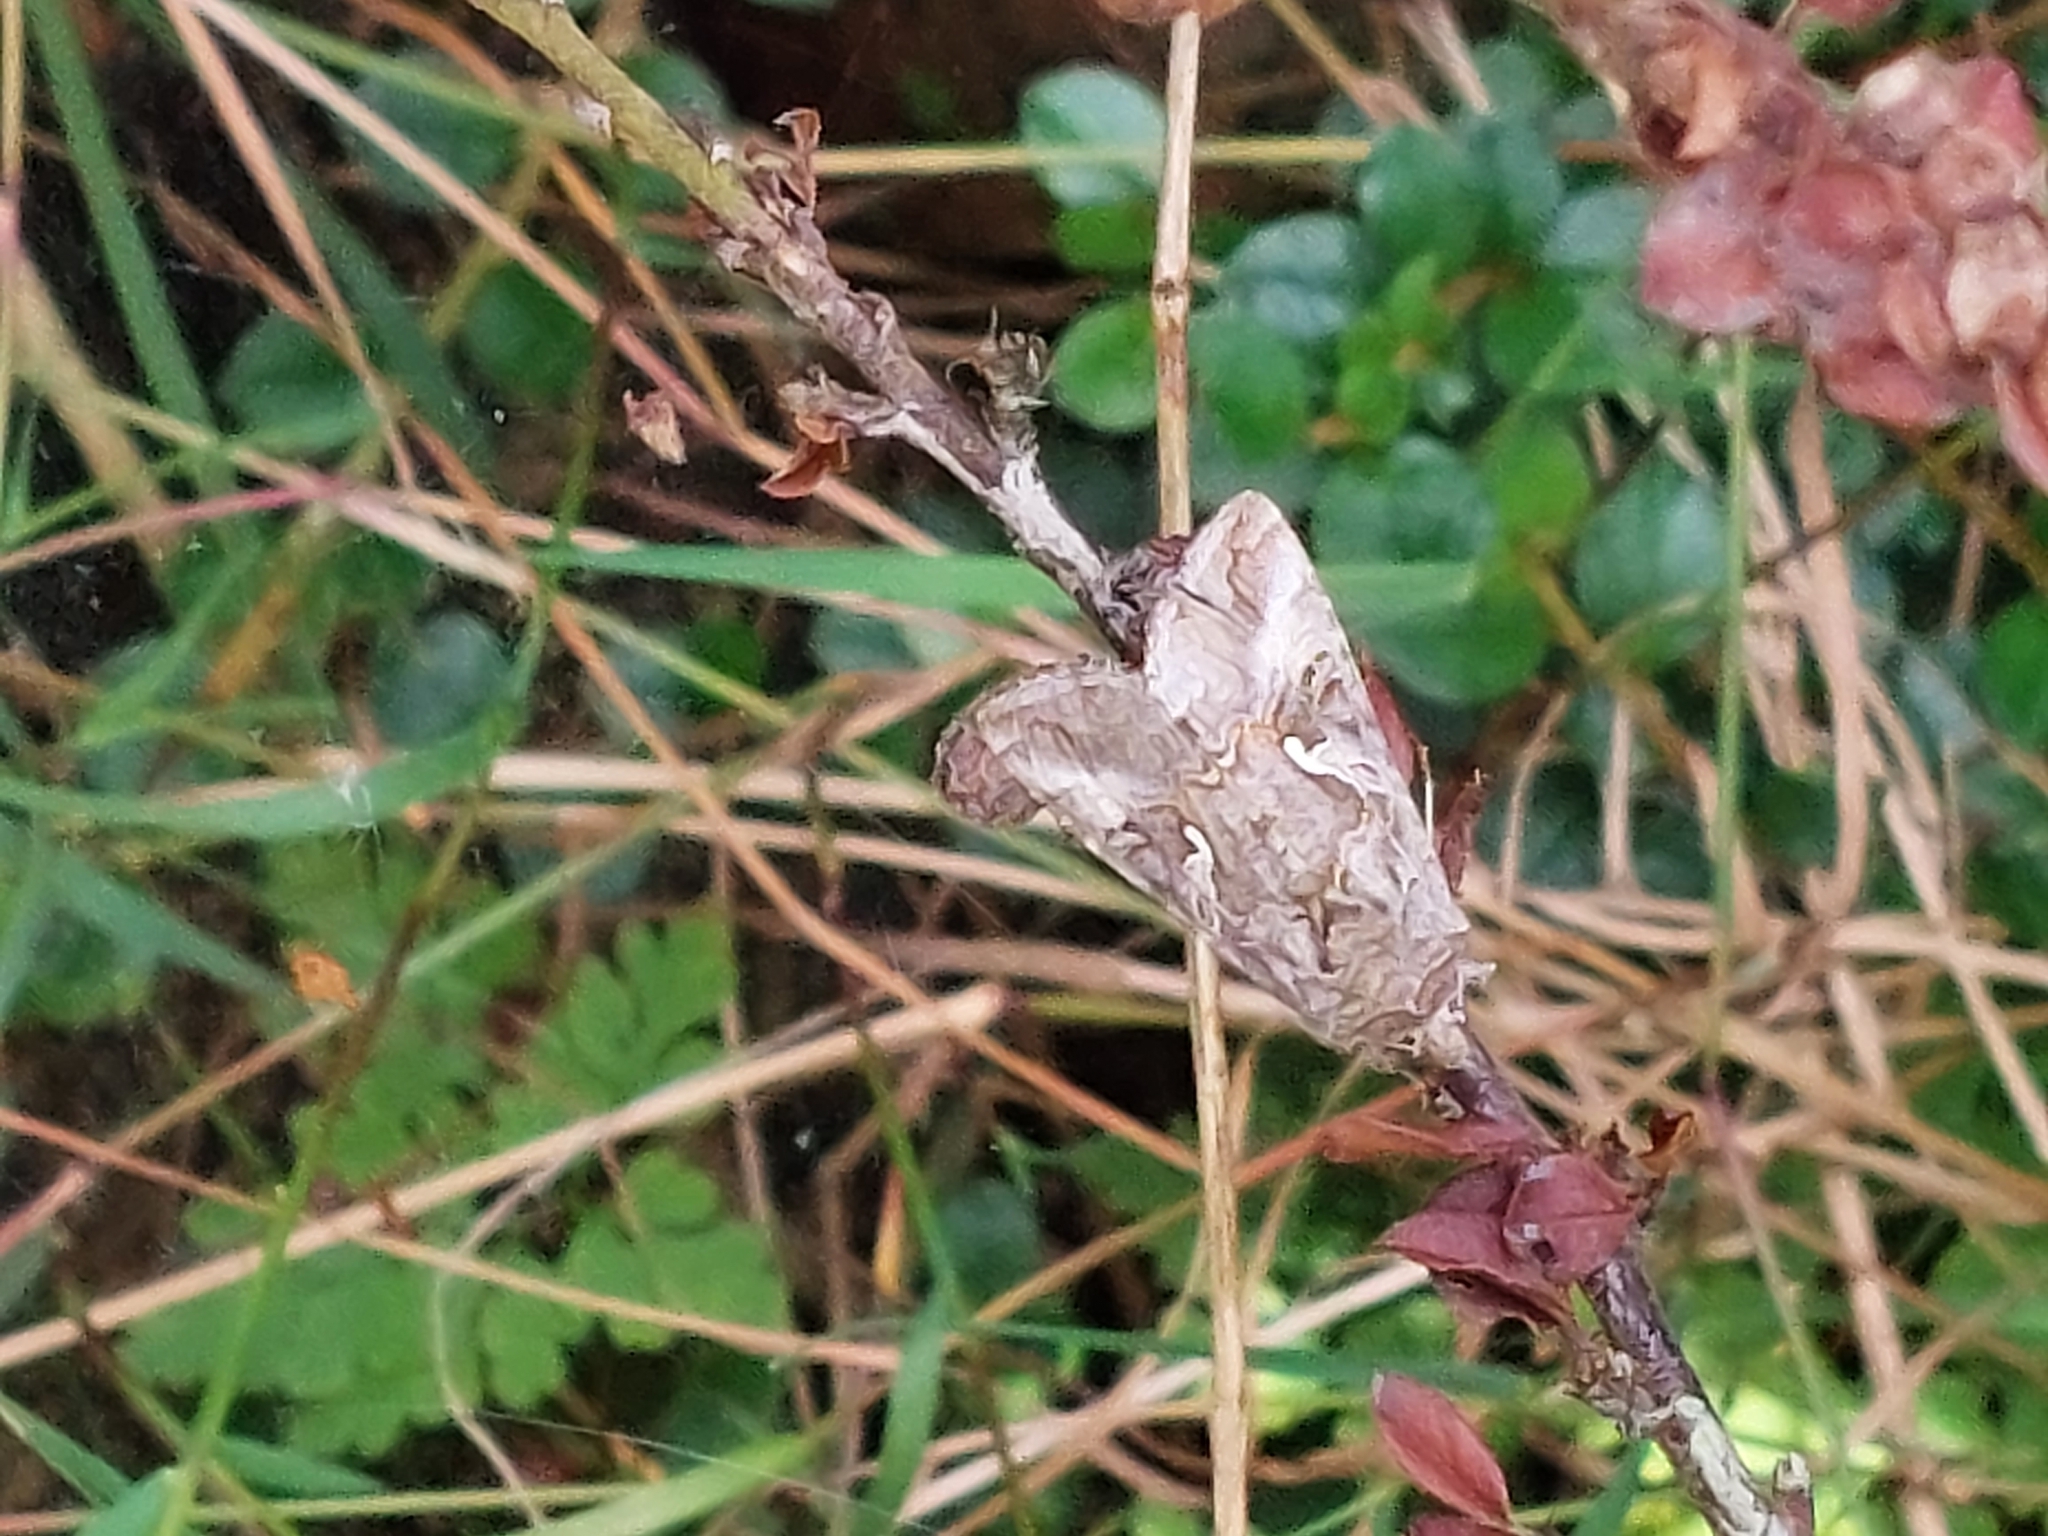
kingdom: Animalia
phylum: Arthropoda
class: Insecta
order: Lepidoptera
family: Noctuidae
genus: Autographa
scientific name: Autographa gamma
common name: Silver y
